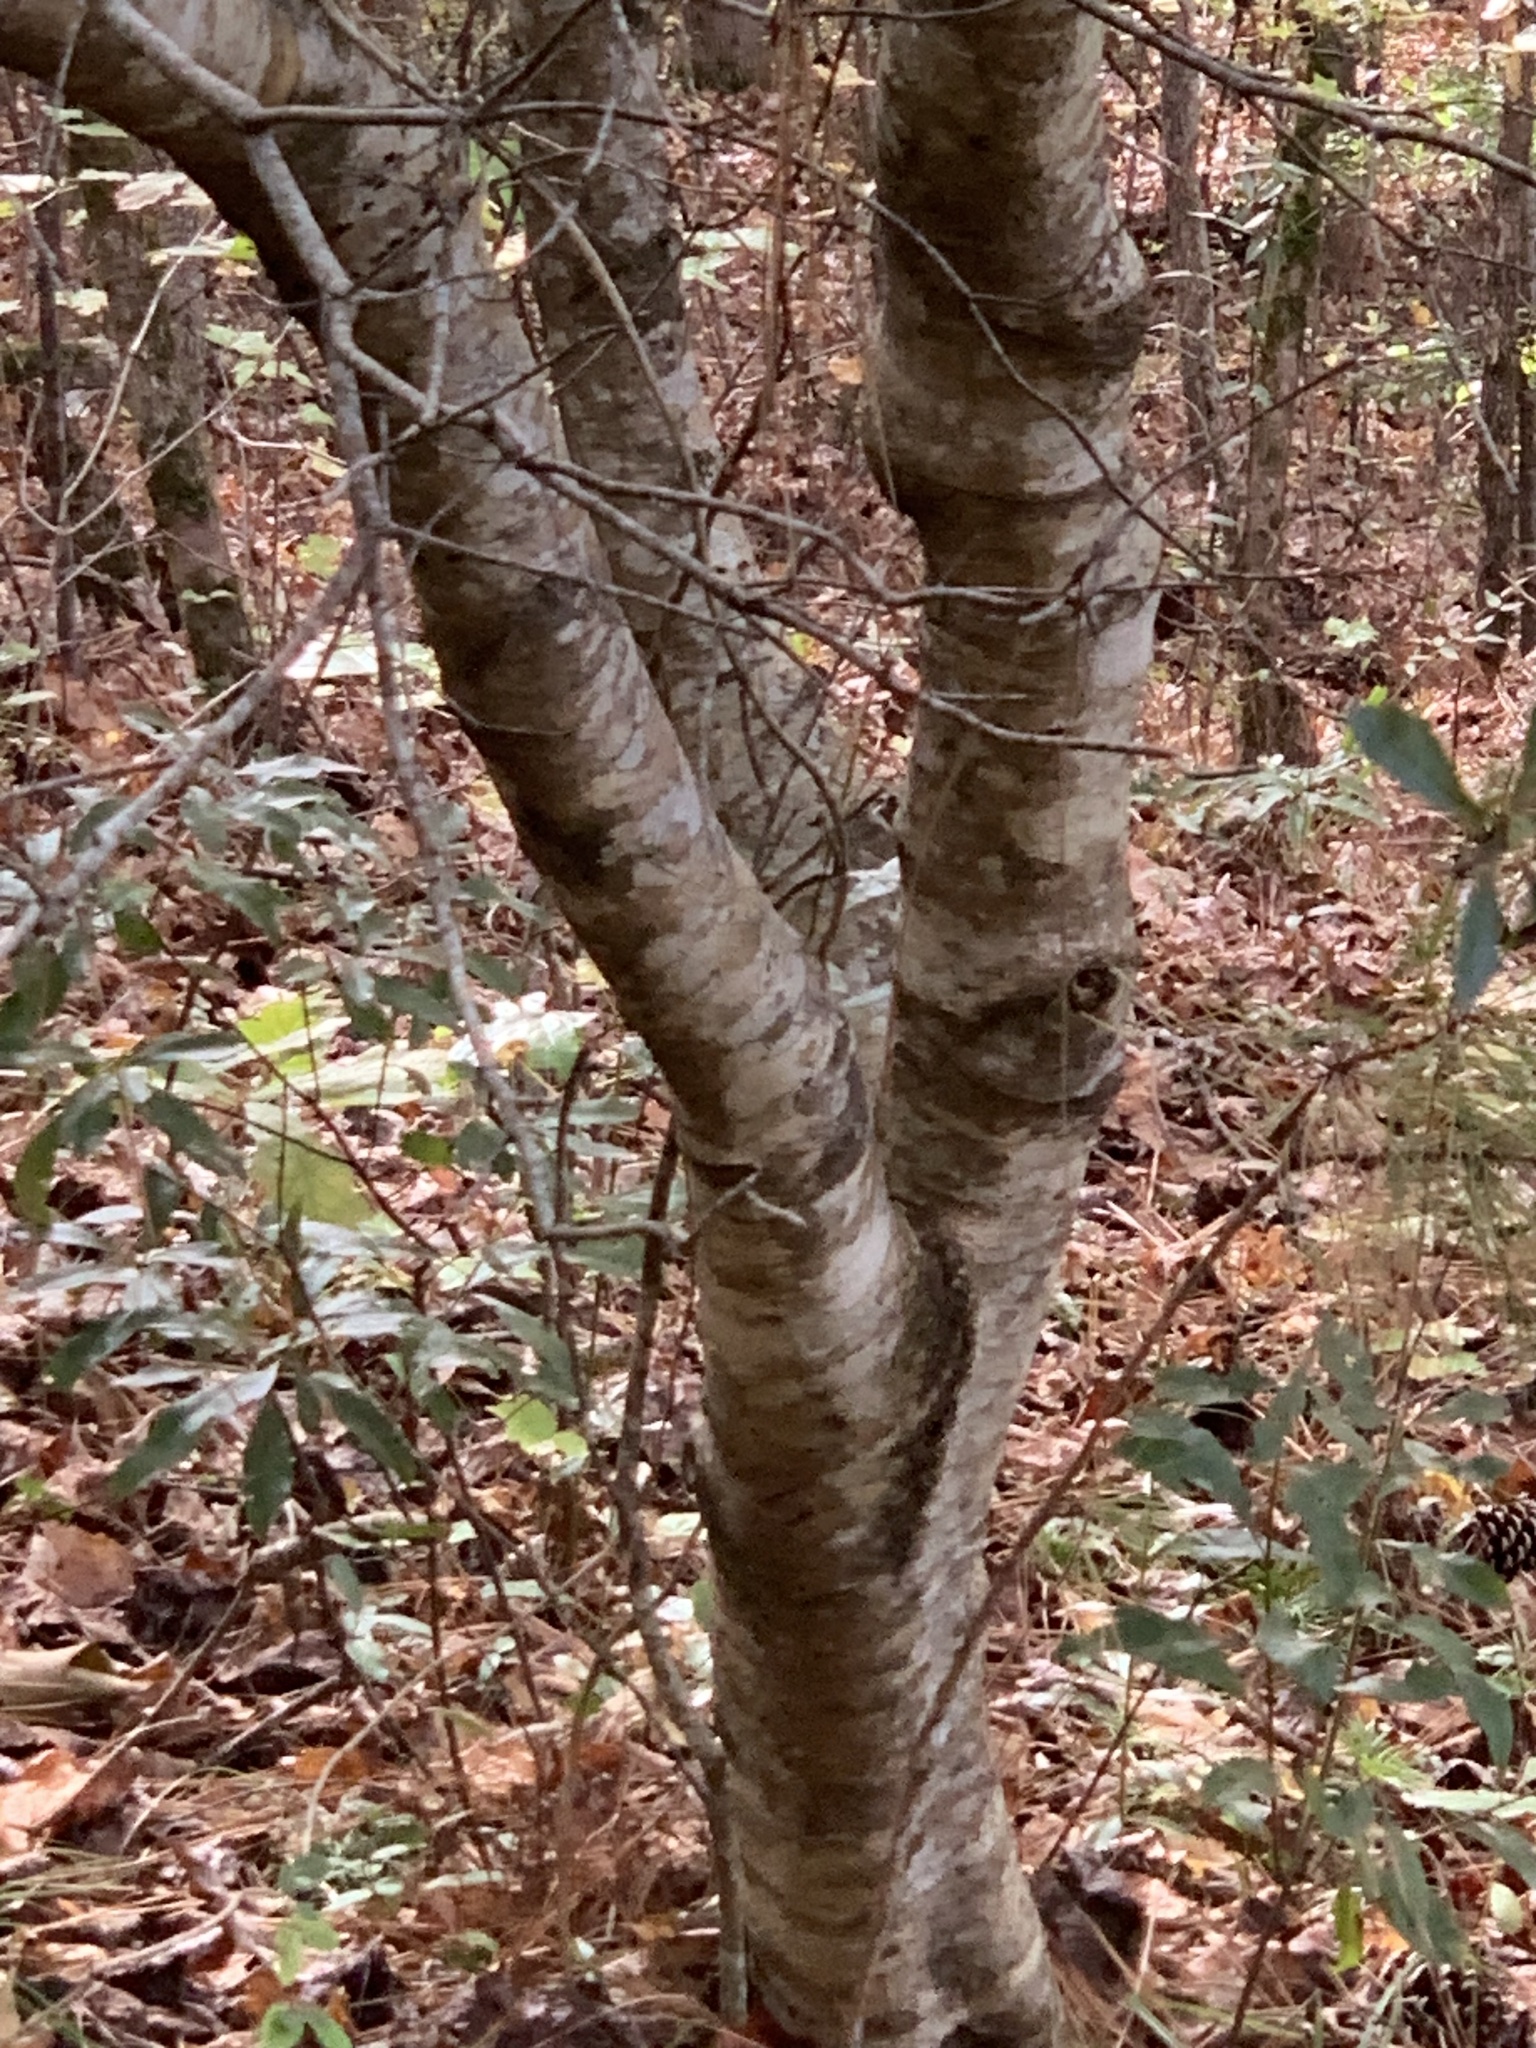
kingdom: Plantae
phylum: Tracheophyta
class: Magnoliopsida
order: Fagales
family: Myricaceae
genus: Morella
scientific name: Morella cerifera
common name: Wax myrtle
